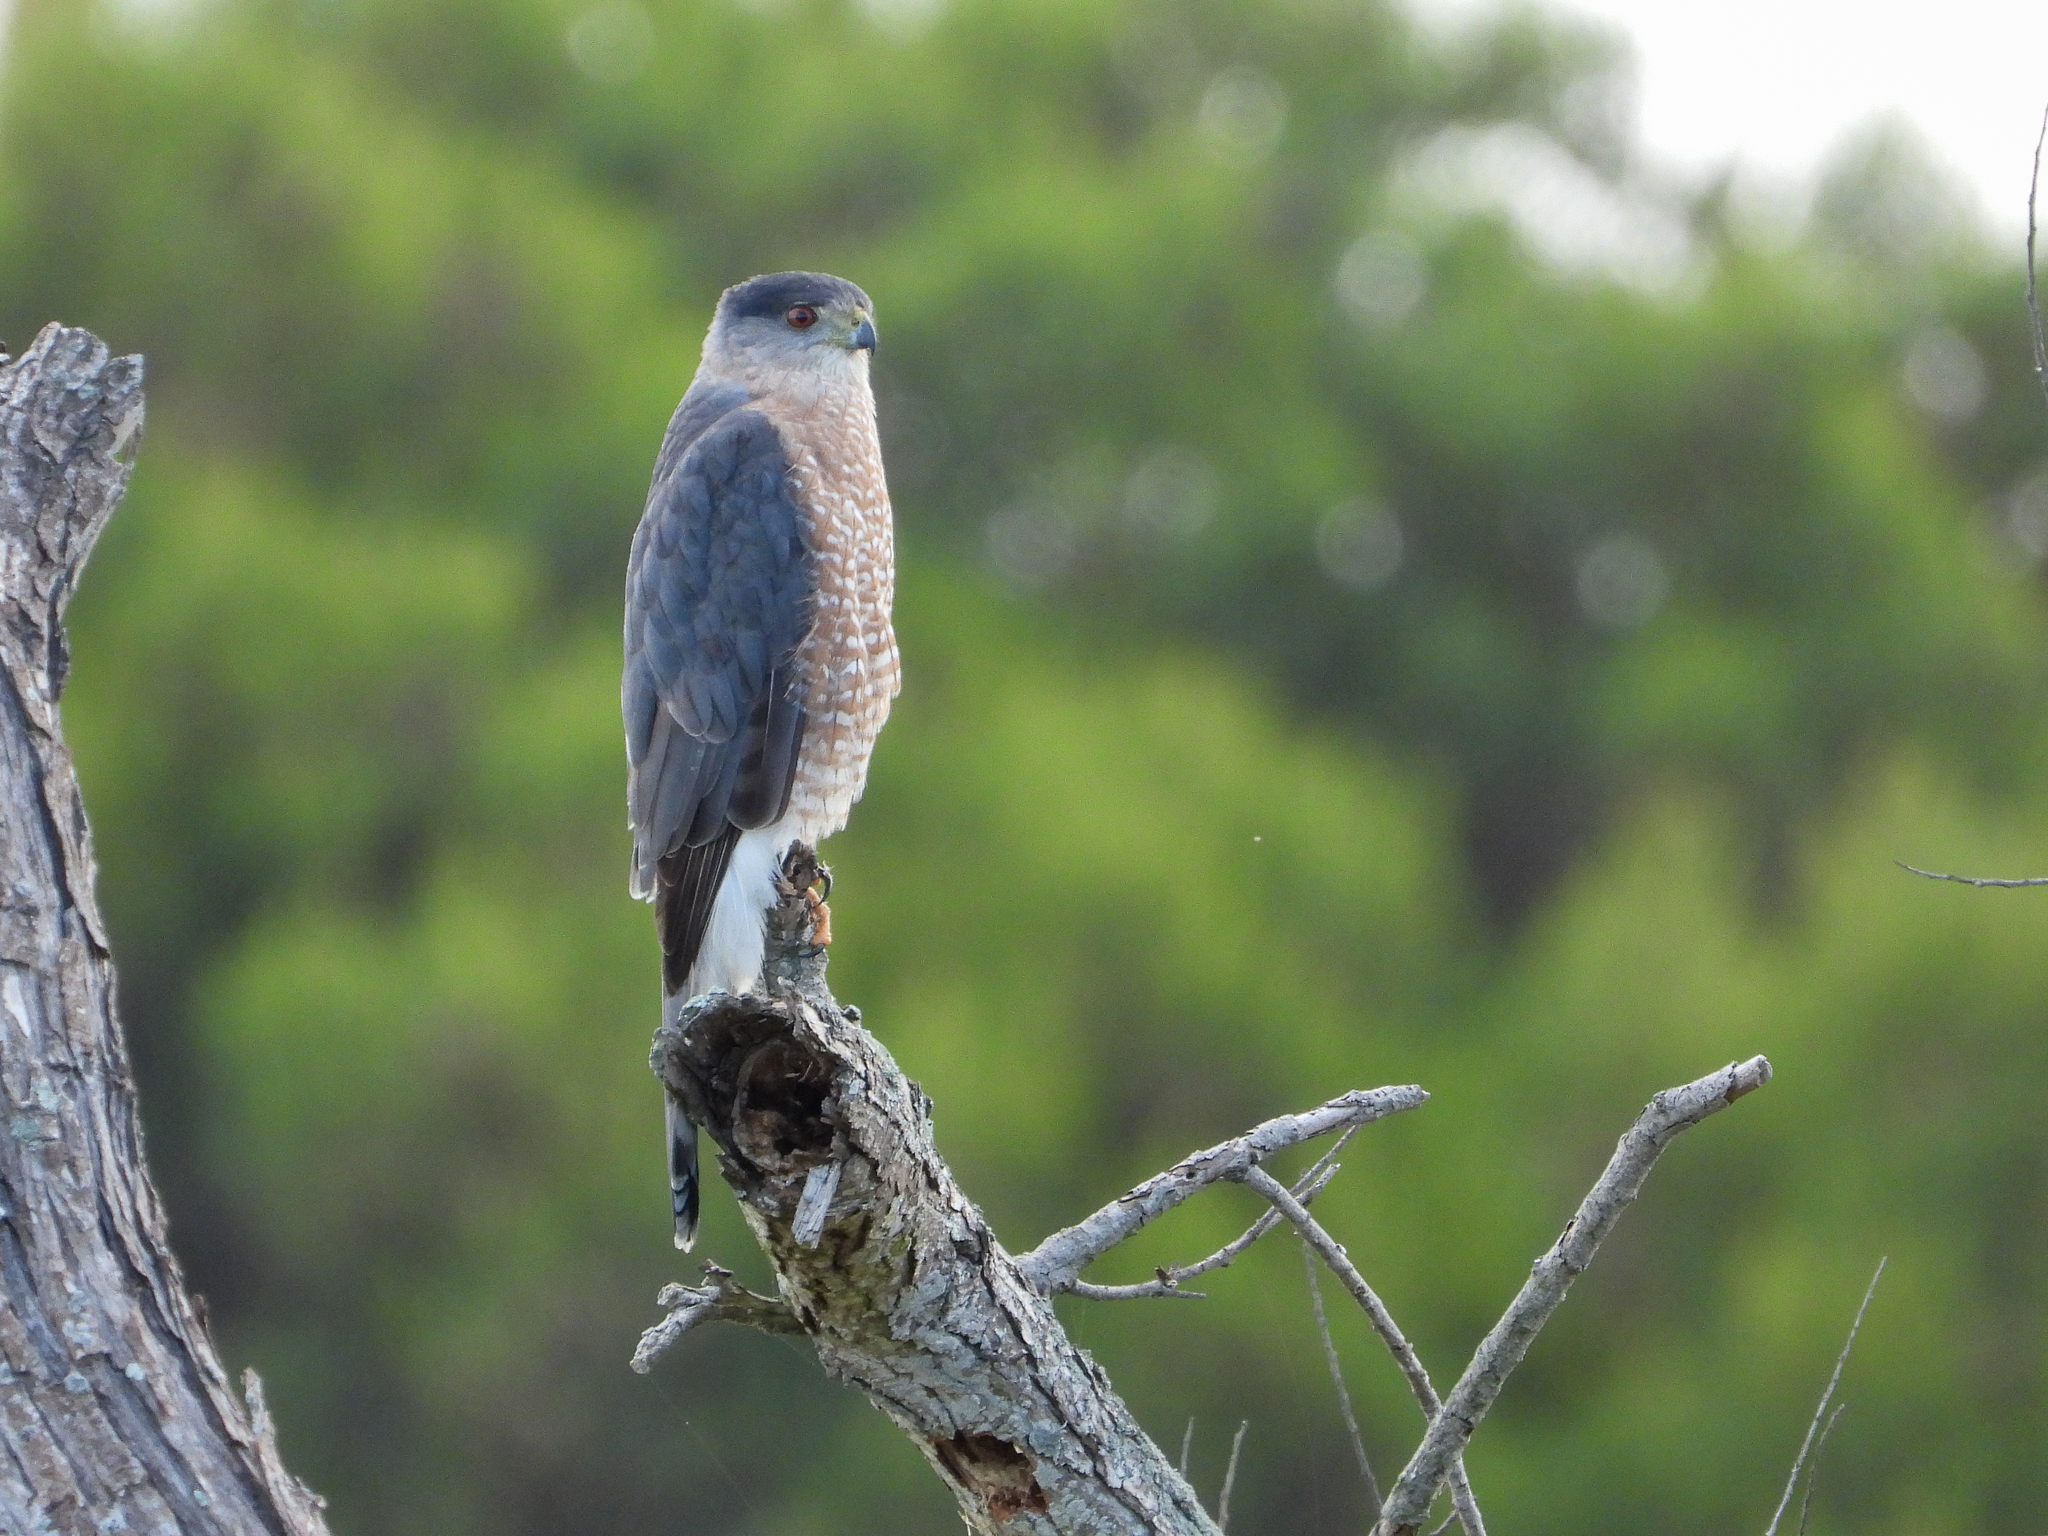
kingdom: Animalia
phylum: Chordata
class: Aves
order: Accipitriformes
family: Accipitridae
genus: Accipiter
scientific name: Accipiter cooperii
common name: Cooper's hawk
